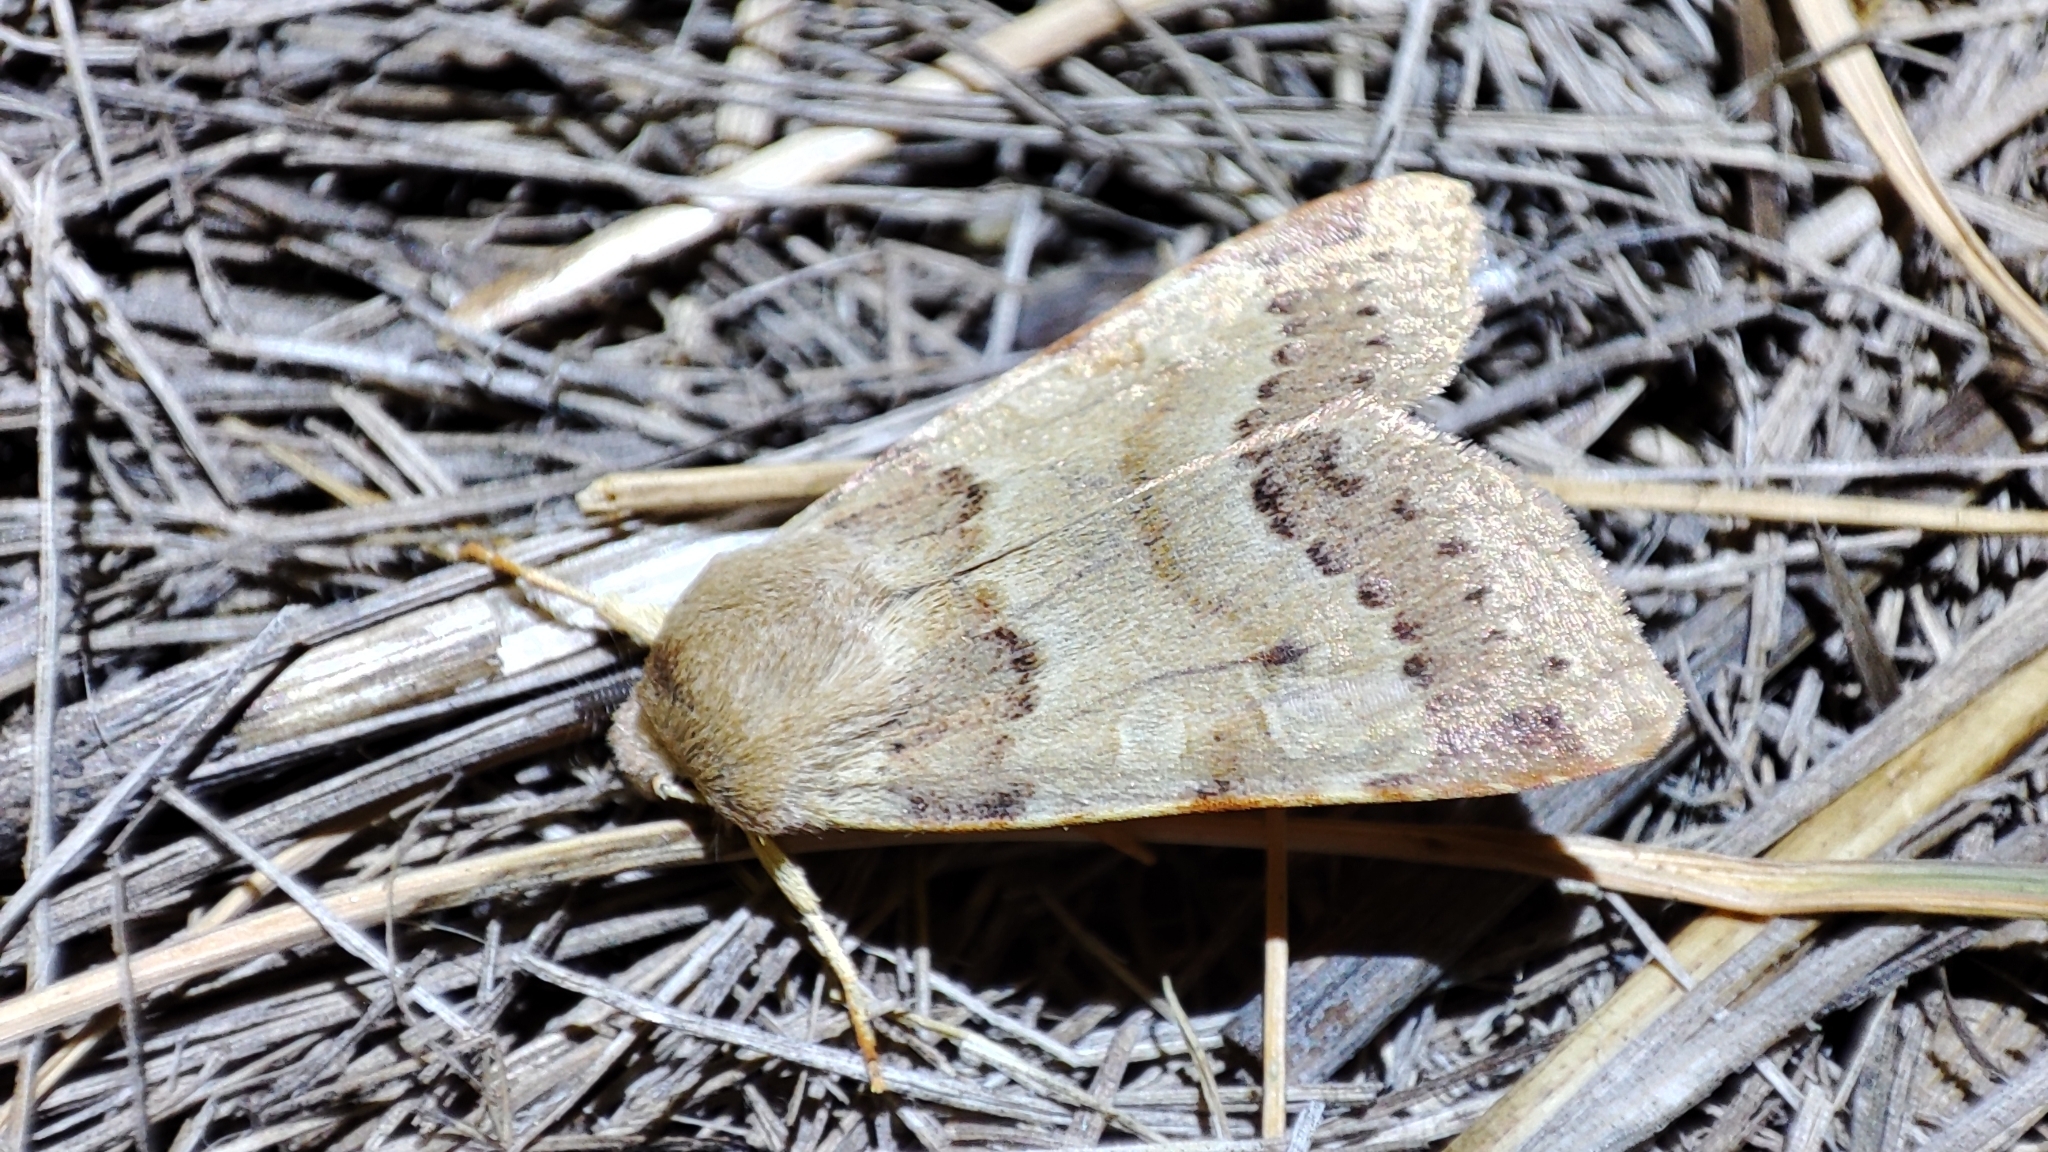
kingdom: Animalia
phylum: Arthropoda
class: Insecta
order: Lepidoptera
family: Noctuidae
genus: Agrochola
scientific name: Agrochola helvola
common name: Flounced chestnut
